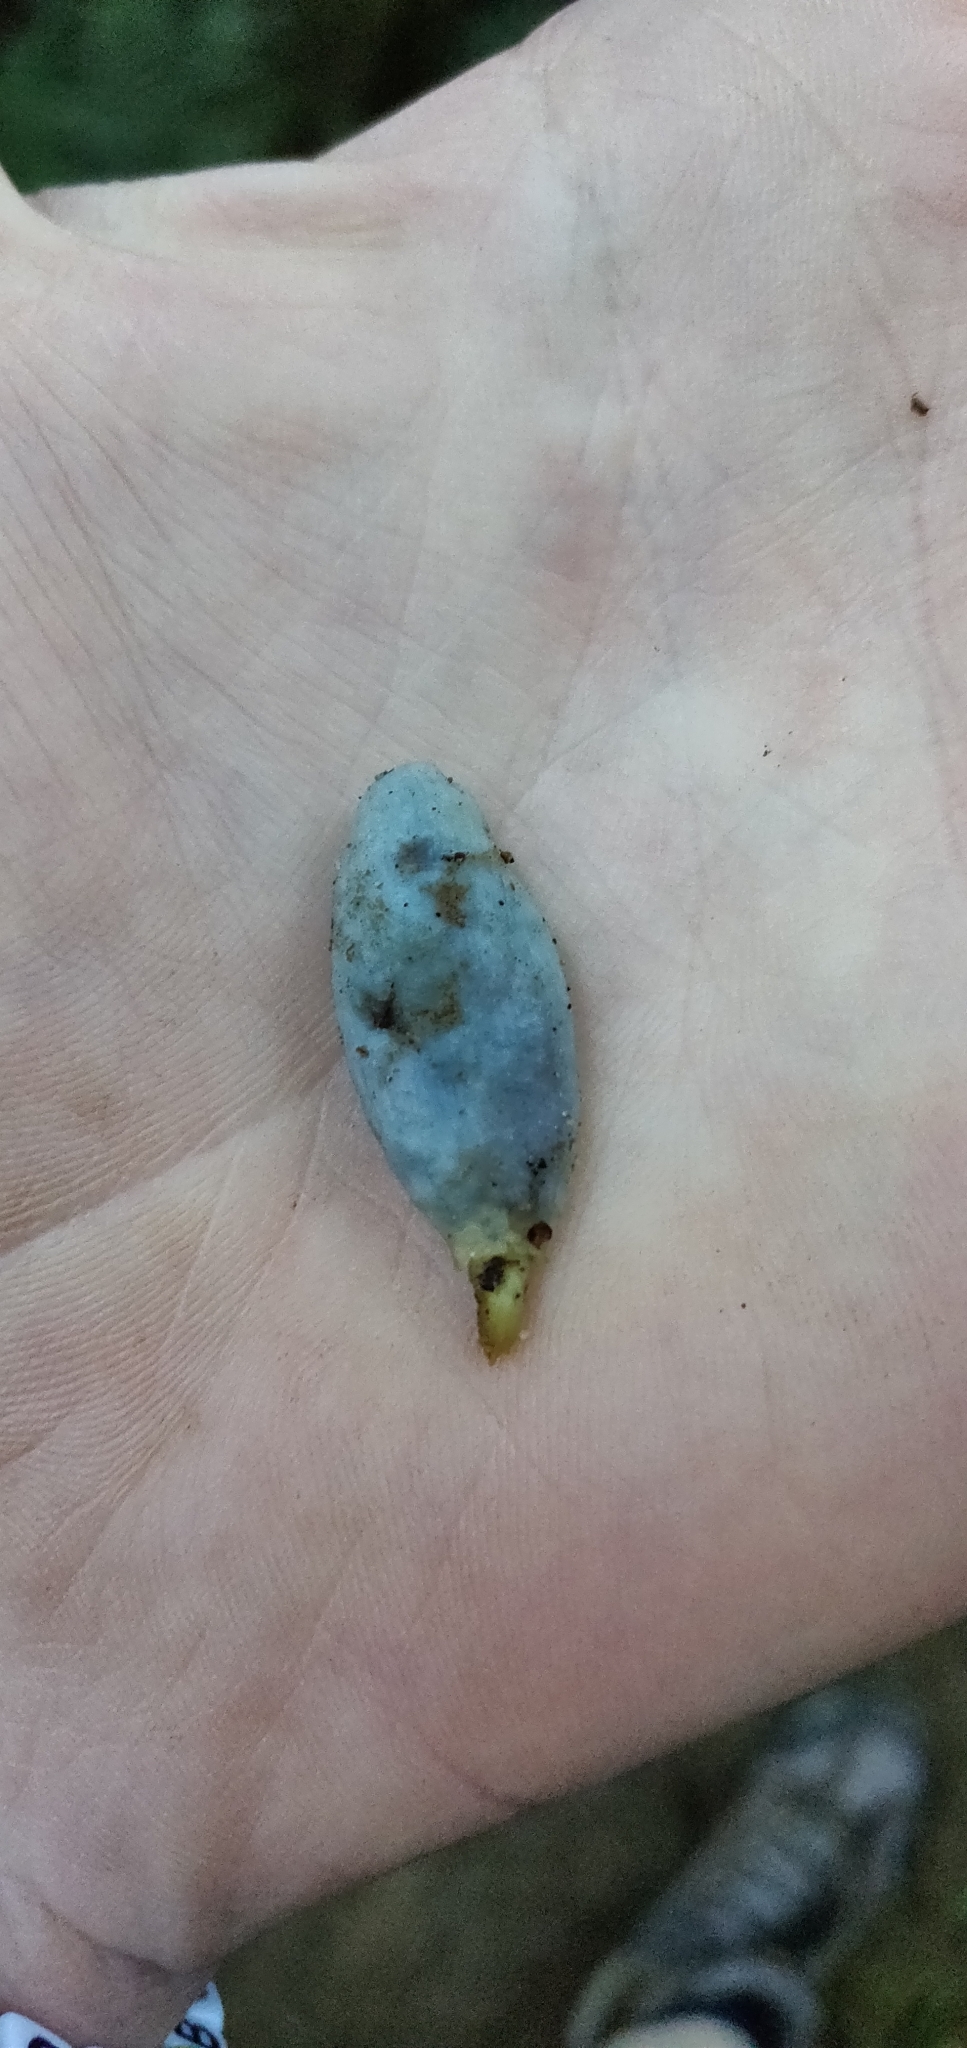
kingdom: Fungi
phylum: Basidiomycota
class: Agaricomycetes
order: Agaricales
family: Agaricaceae
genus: Clavogaster
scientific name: Clavogaster virescens
